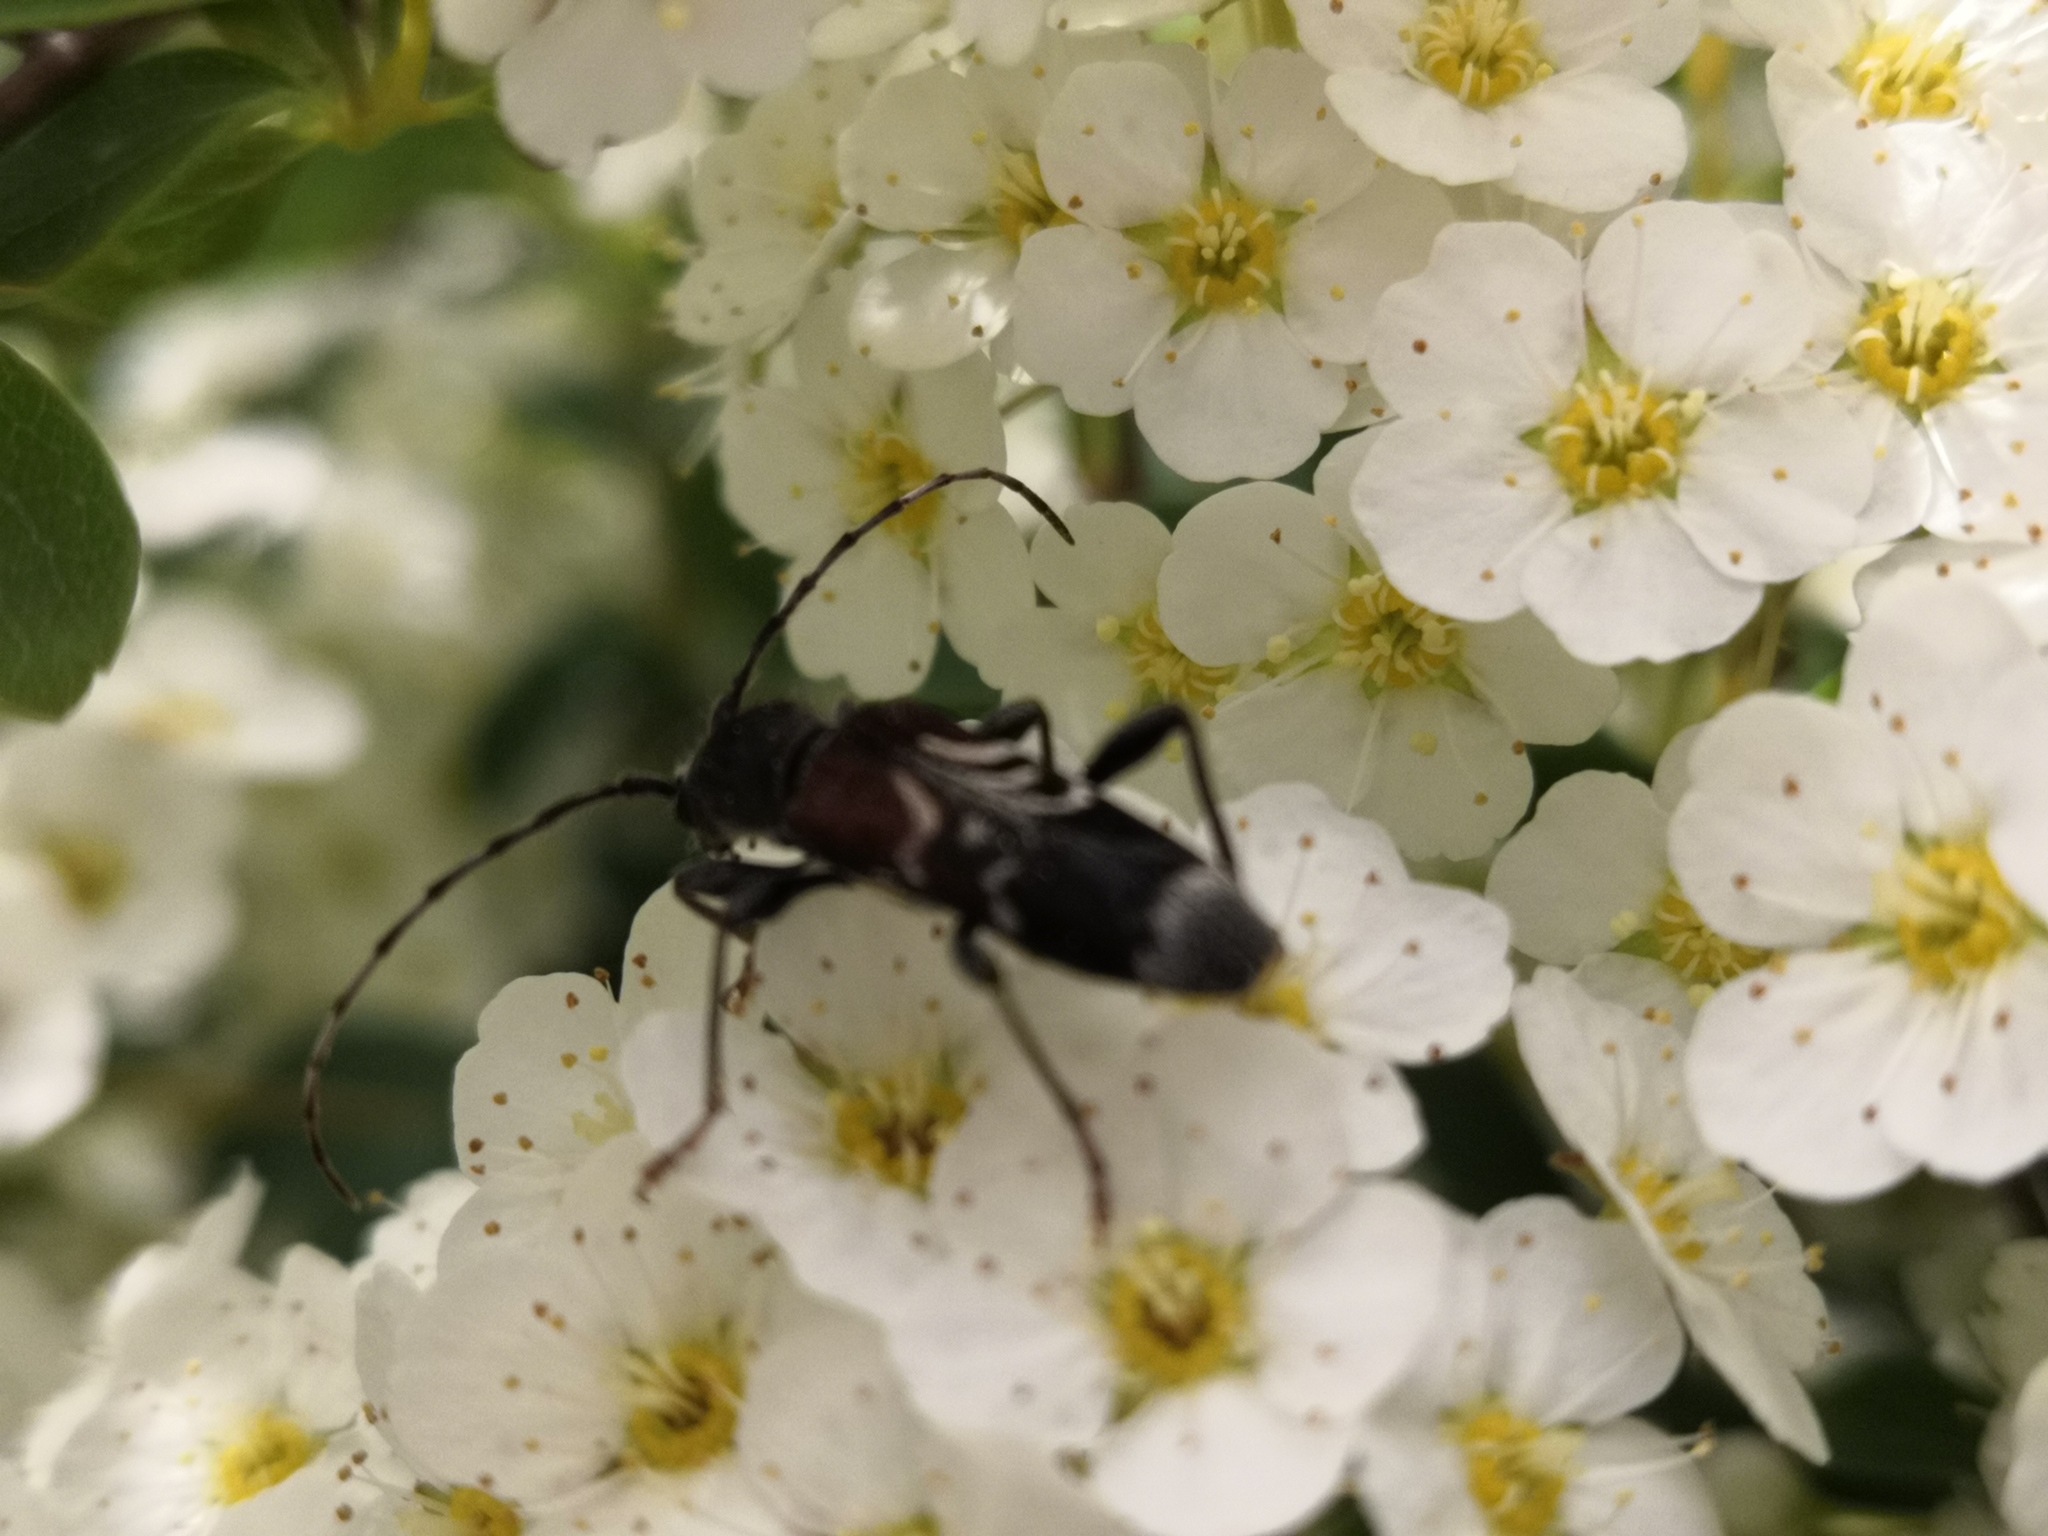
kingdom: Animalia
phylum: Arthropoda
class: Insecta
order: Coleoptera
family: Cerambycidae
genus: Anaglyptus
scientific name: Anaglyptus mysticus
